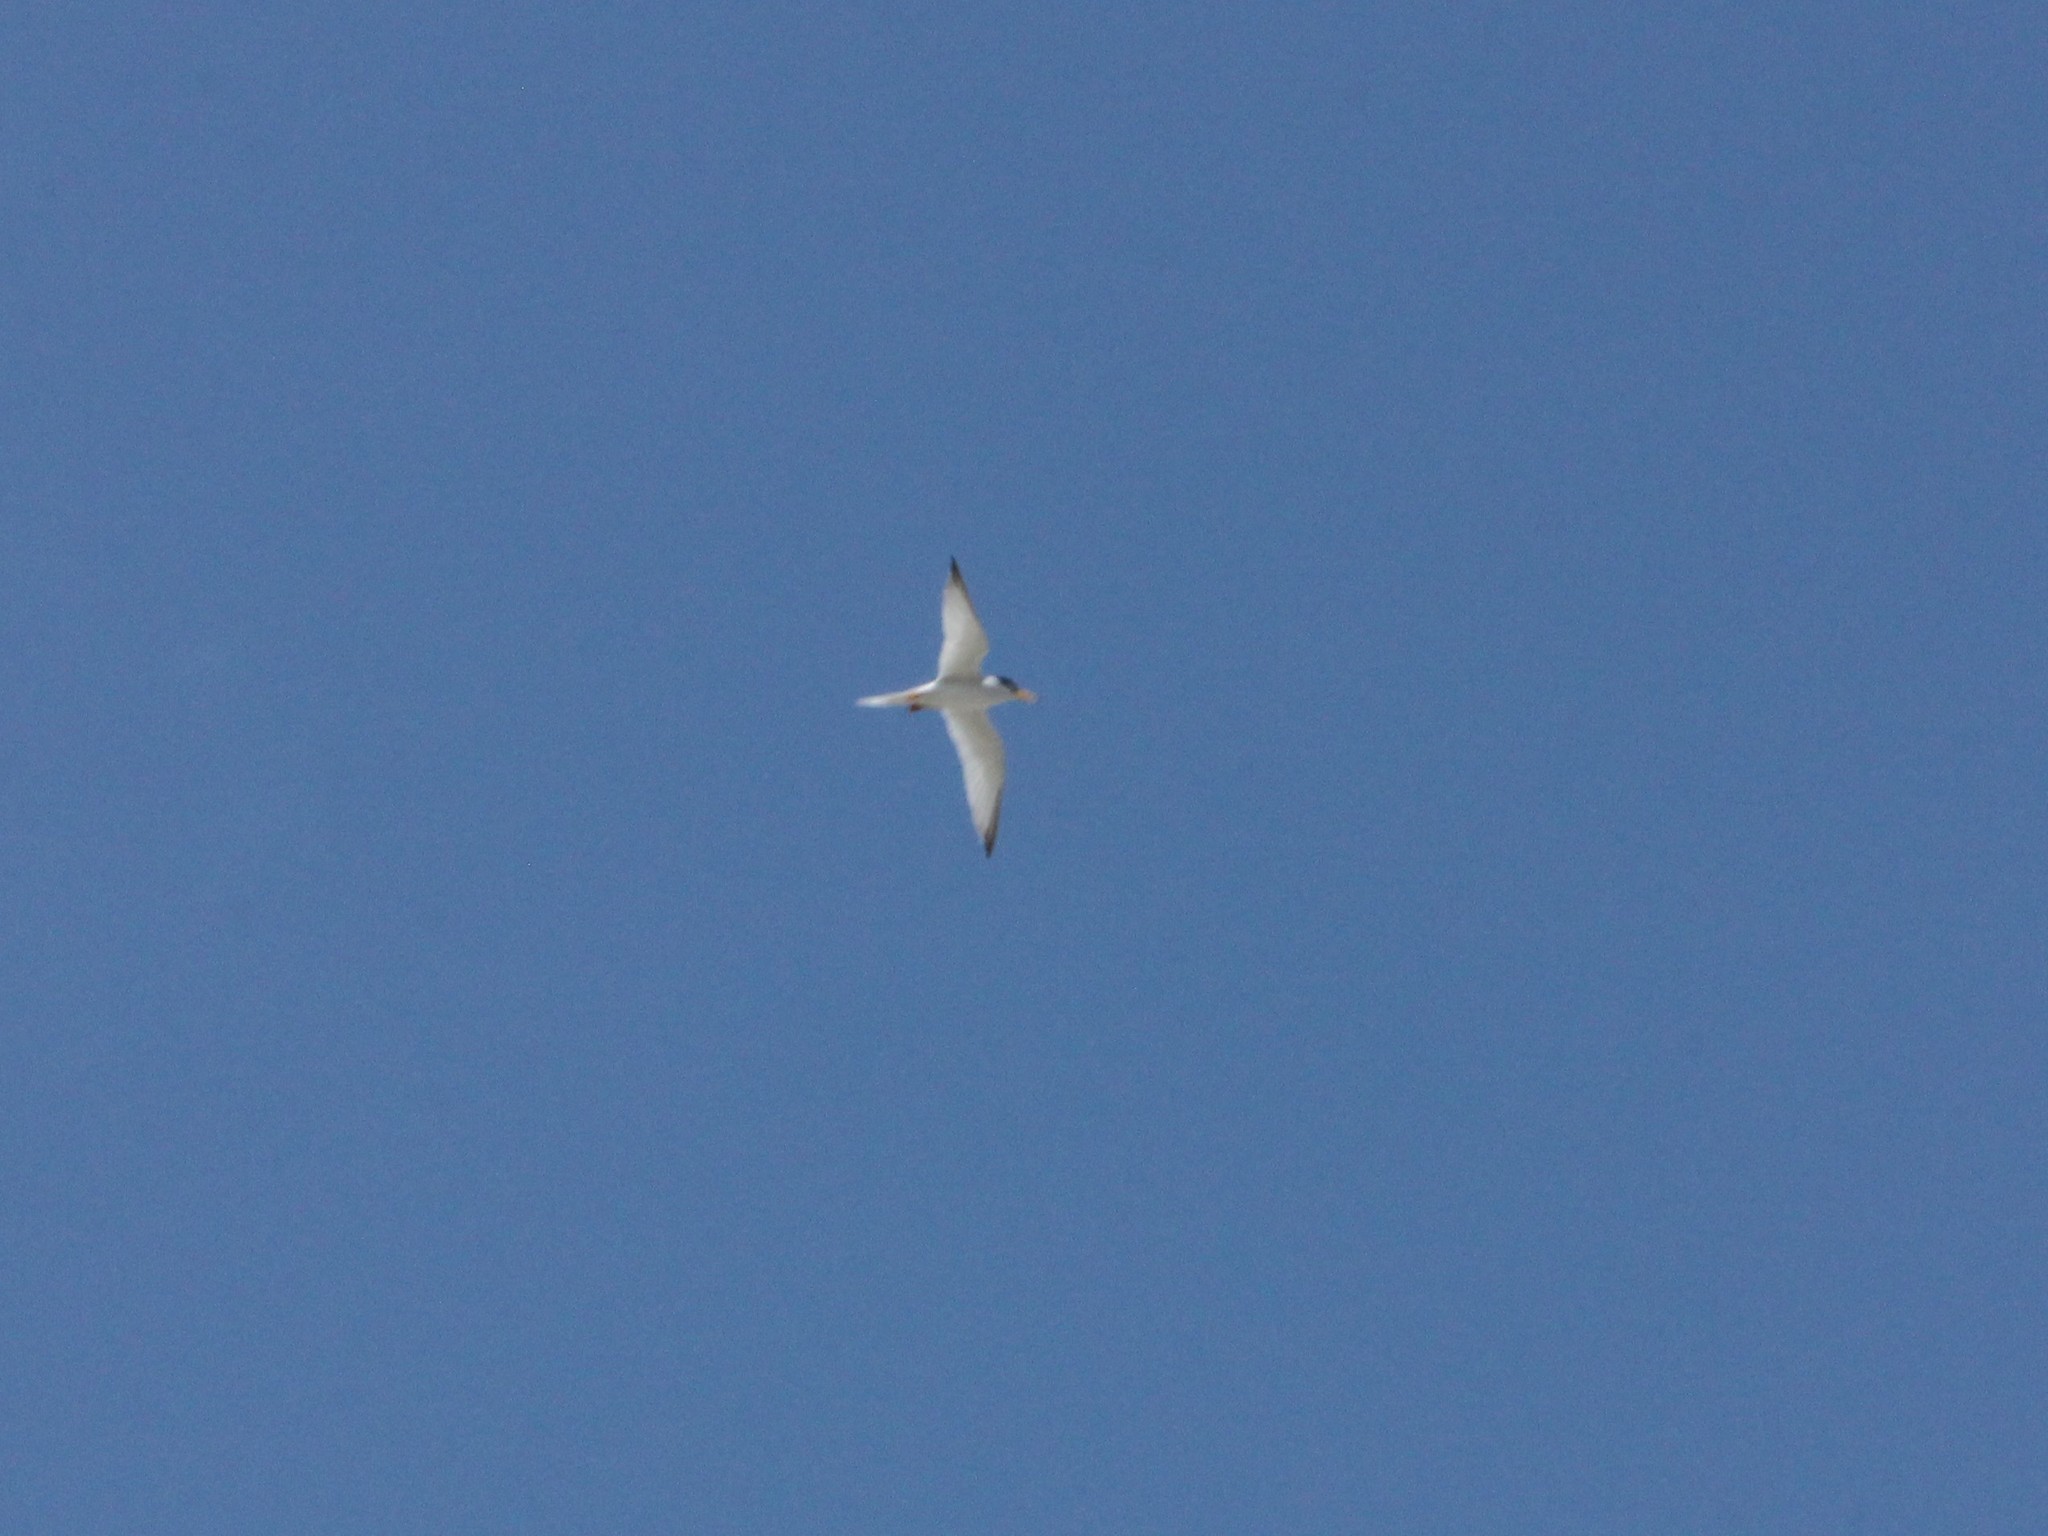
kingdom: Animalia
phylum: Chordata
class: Aves
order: Charadriiformes
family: Laridae
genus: Sternula
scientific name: Sternula antillarum
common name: Least tern
